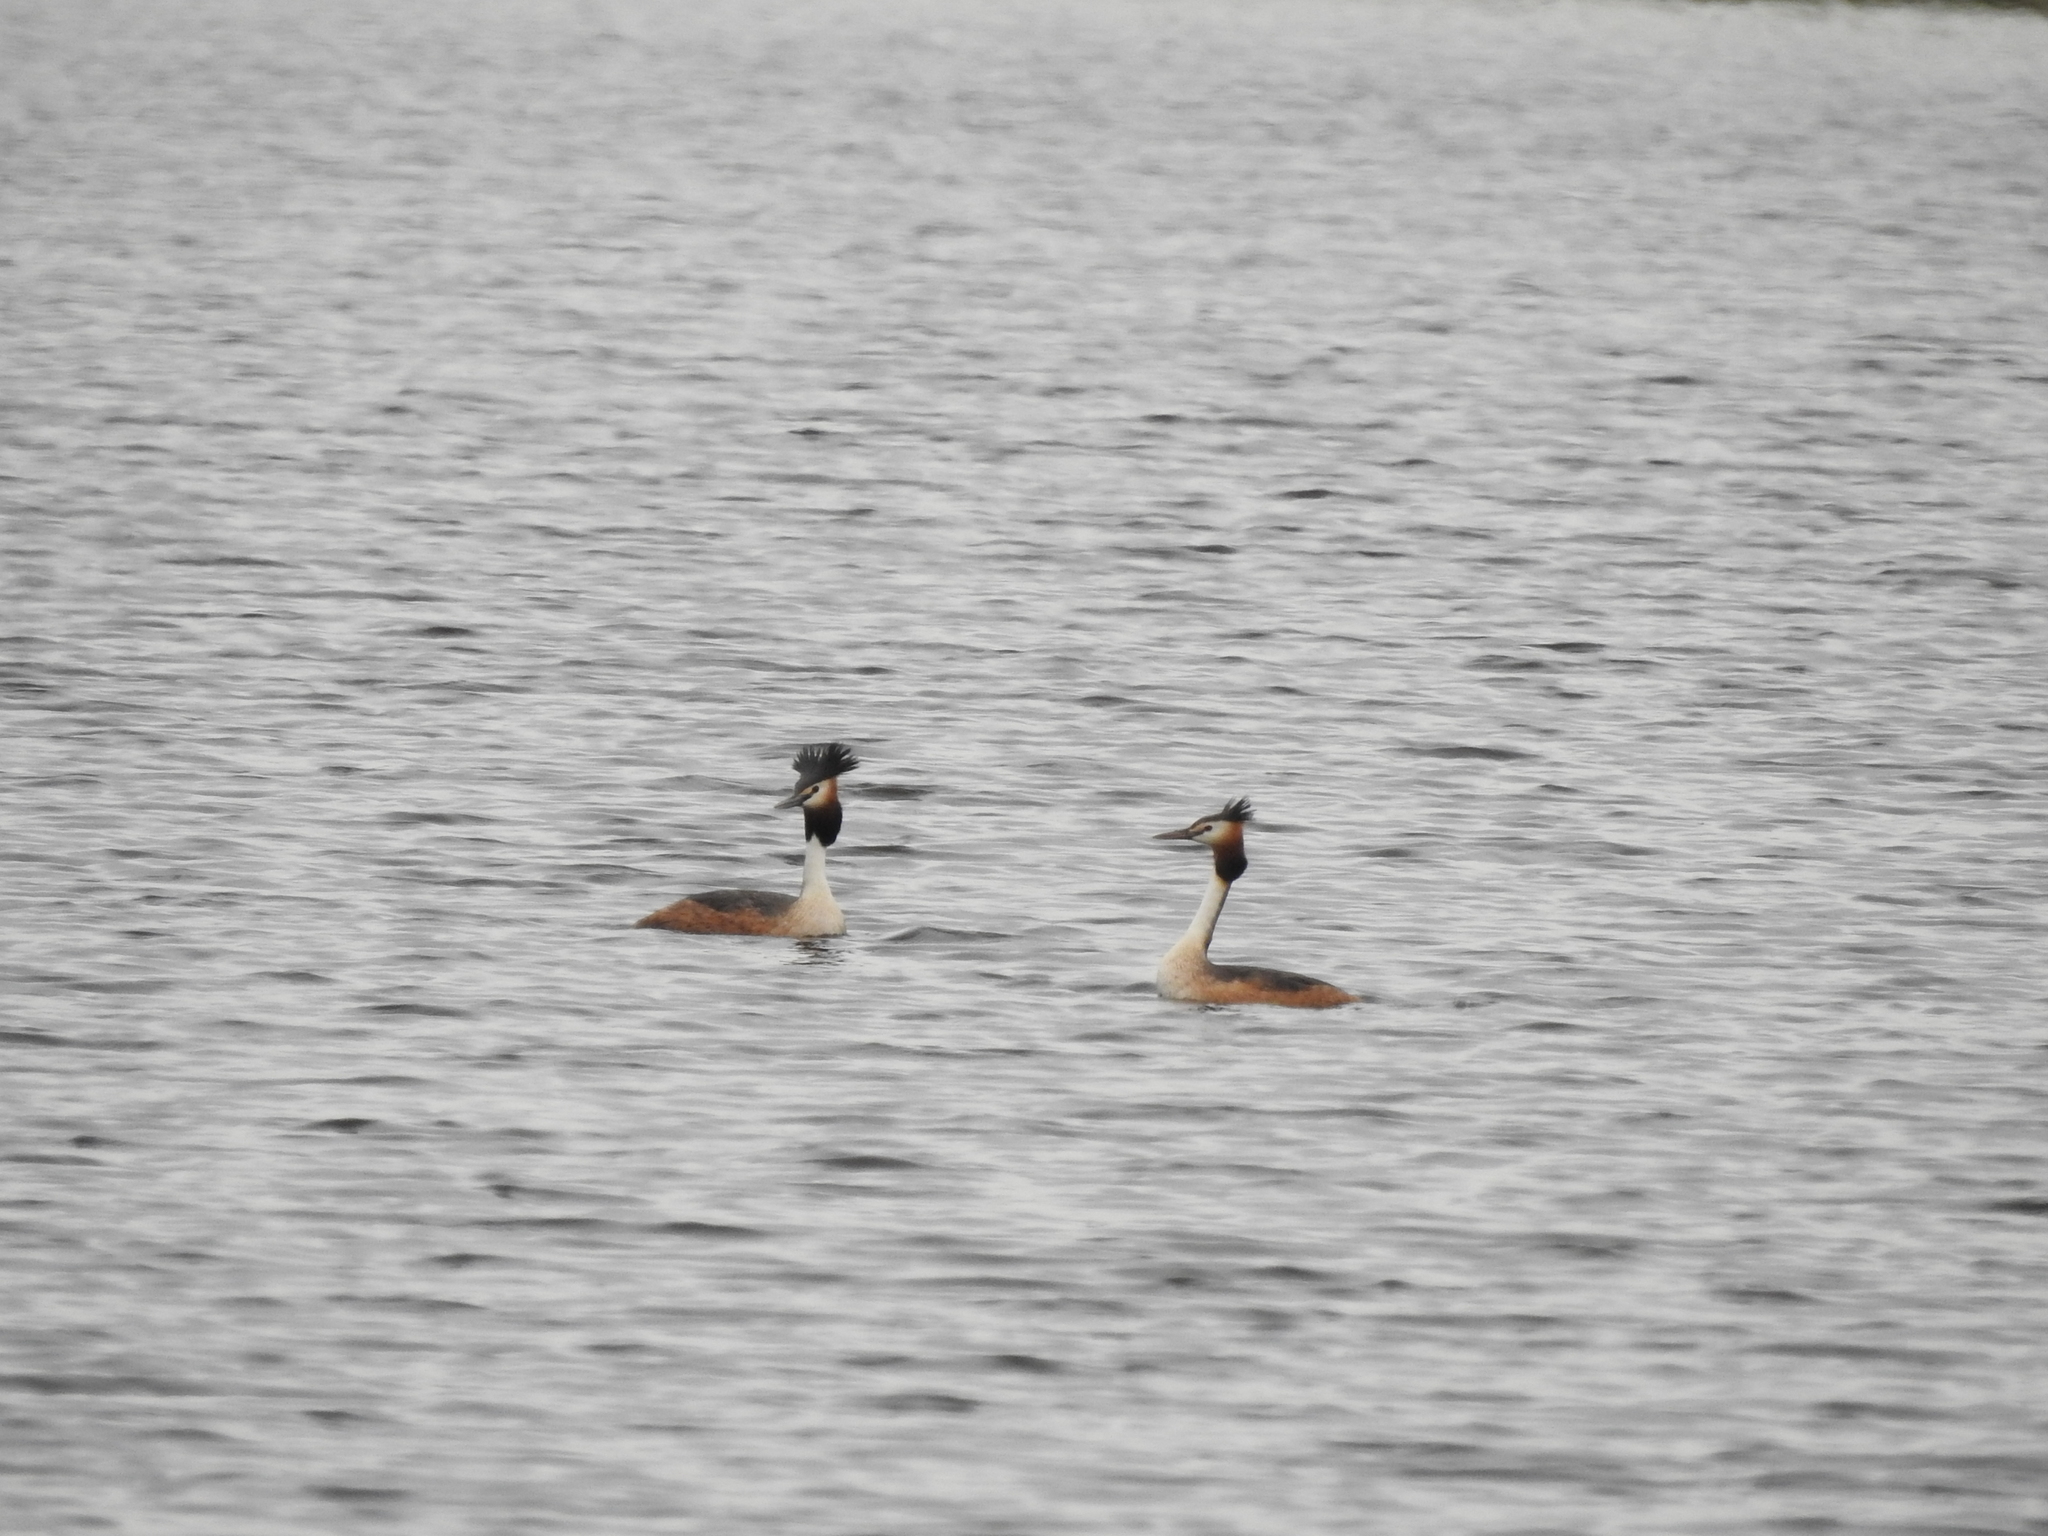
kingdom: Animalia
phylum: Chordata
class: Aves
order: Podicipediformes
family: Podicipedidae
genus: Podiceps
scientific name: Podiceps cristatus
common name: Great crested grebe
